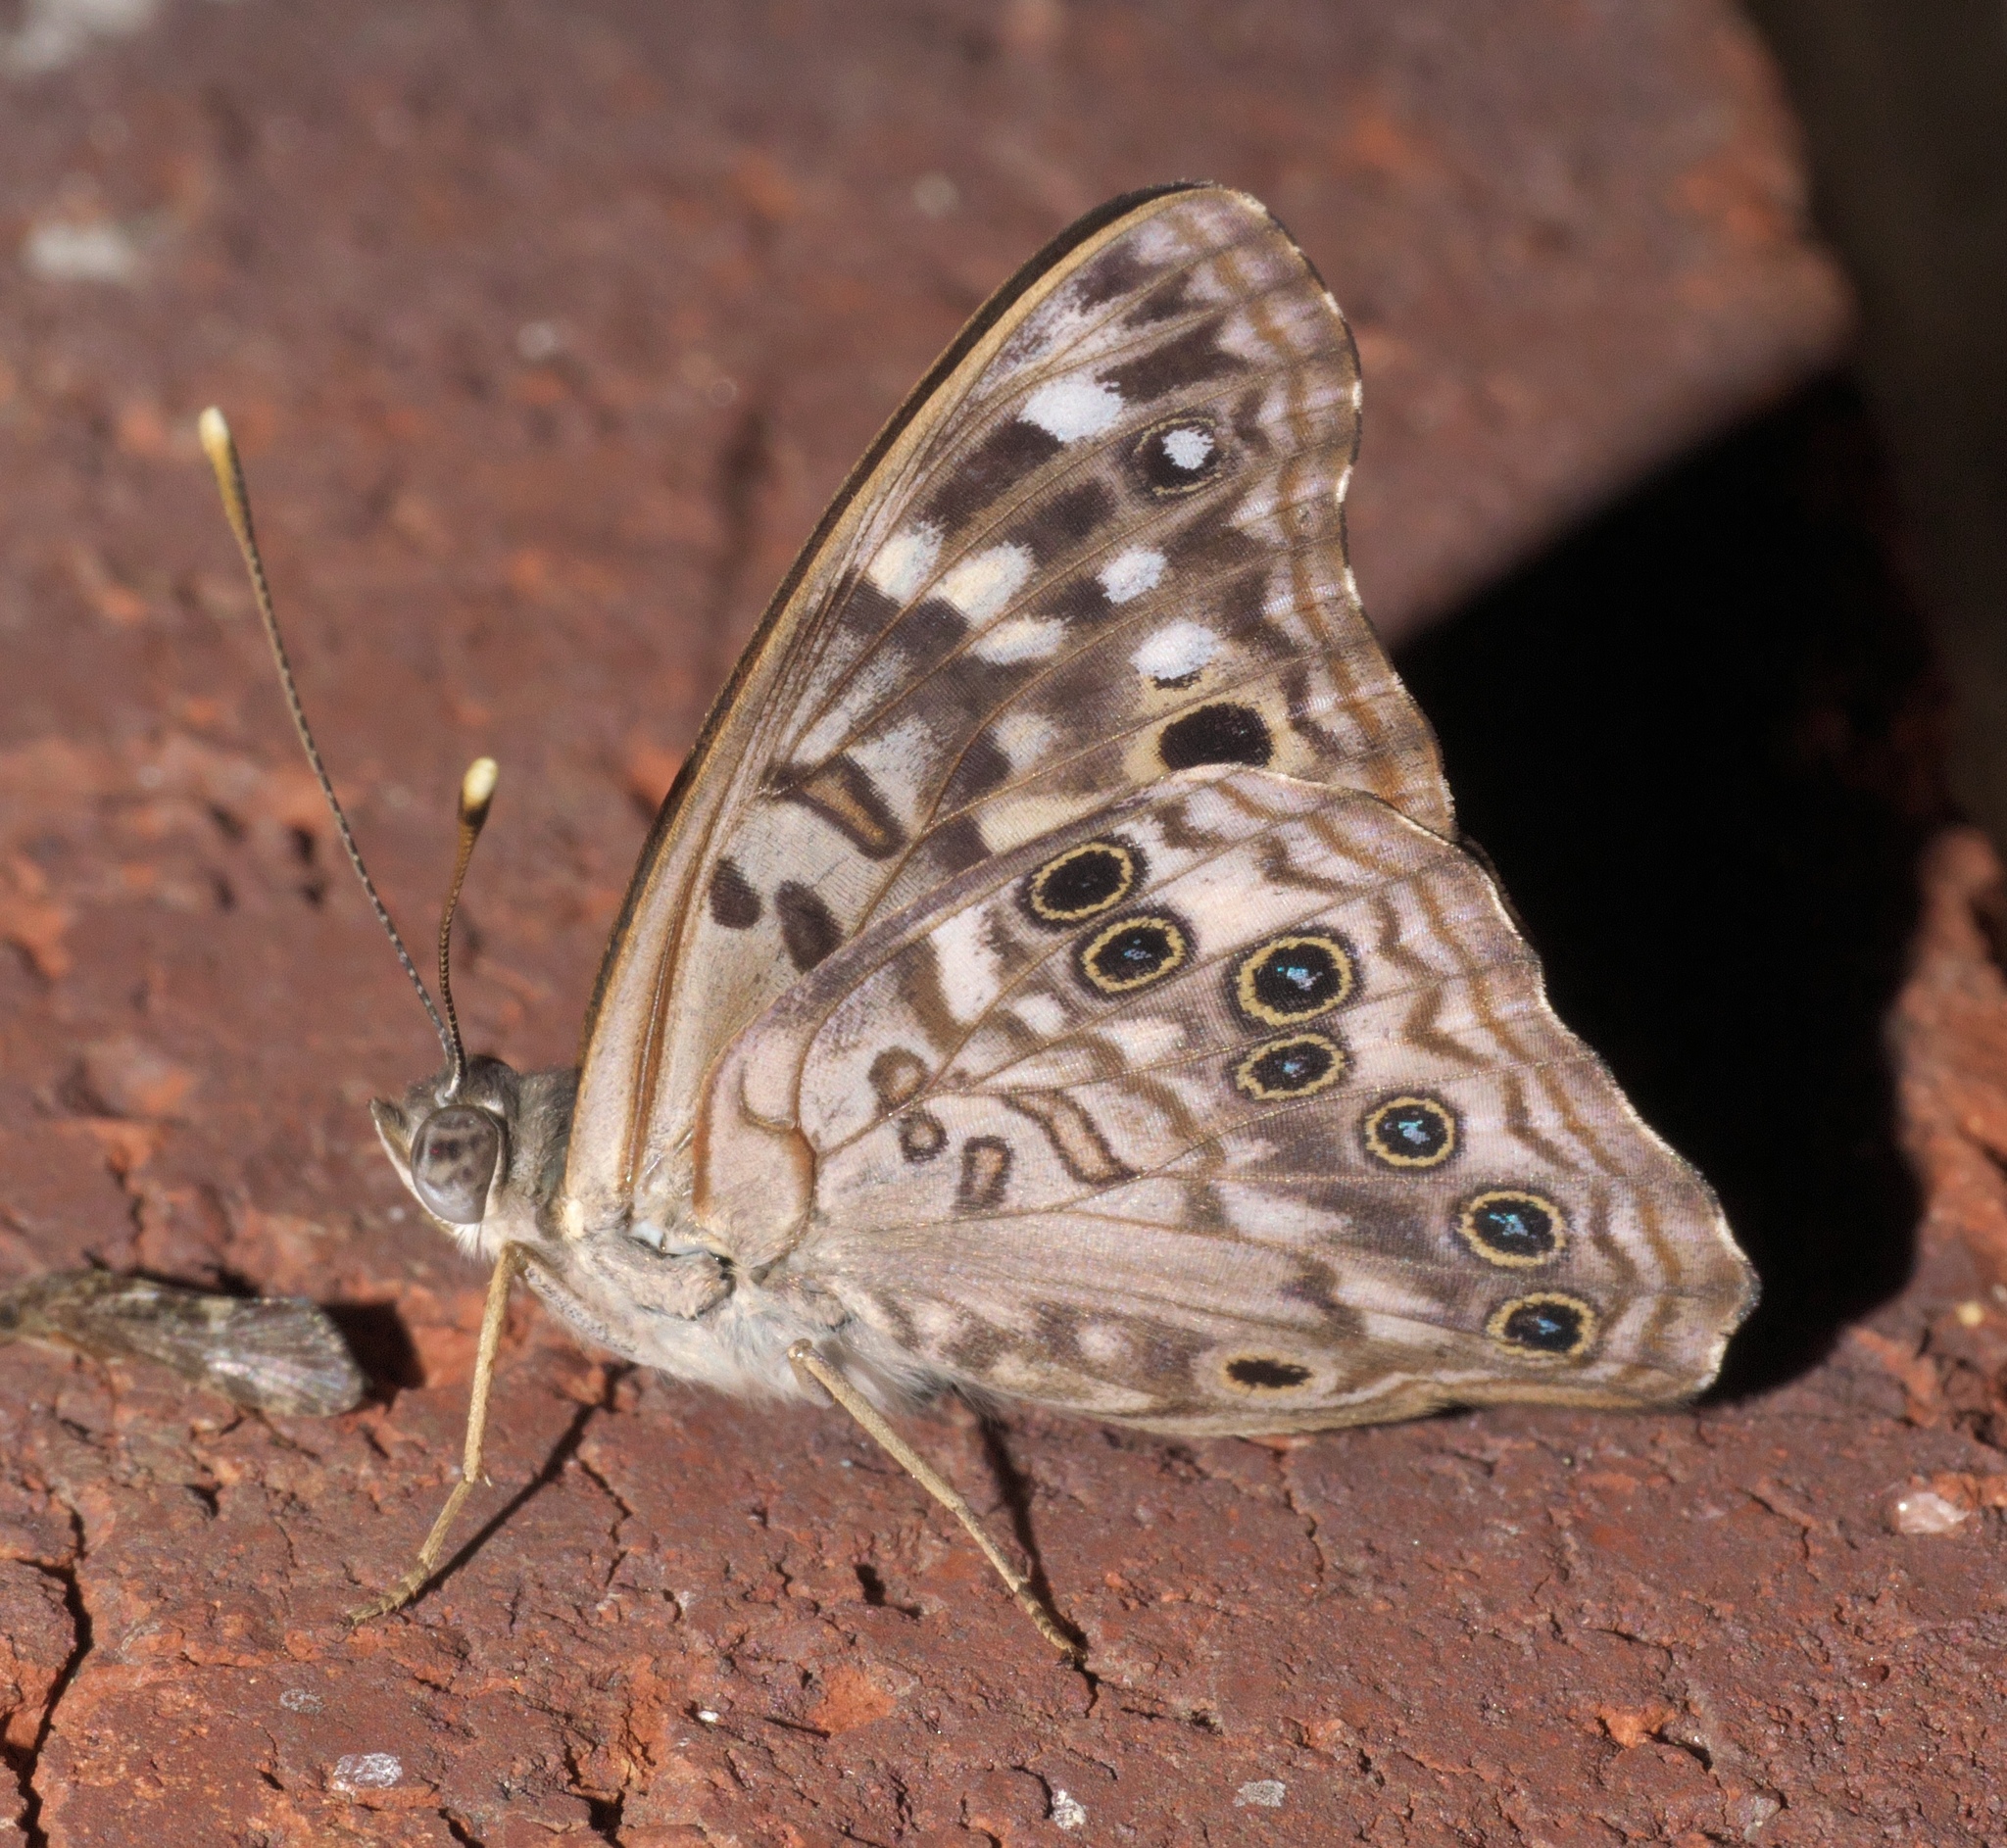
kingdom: Animalia
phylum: Arthropoda
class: Insecta
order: Lepidoptera
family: Nymphalidae
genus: Asterocampa
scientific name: Asterocampa celtis
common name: Hackberry emperor
